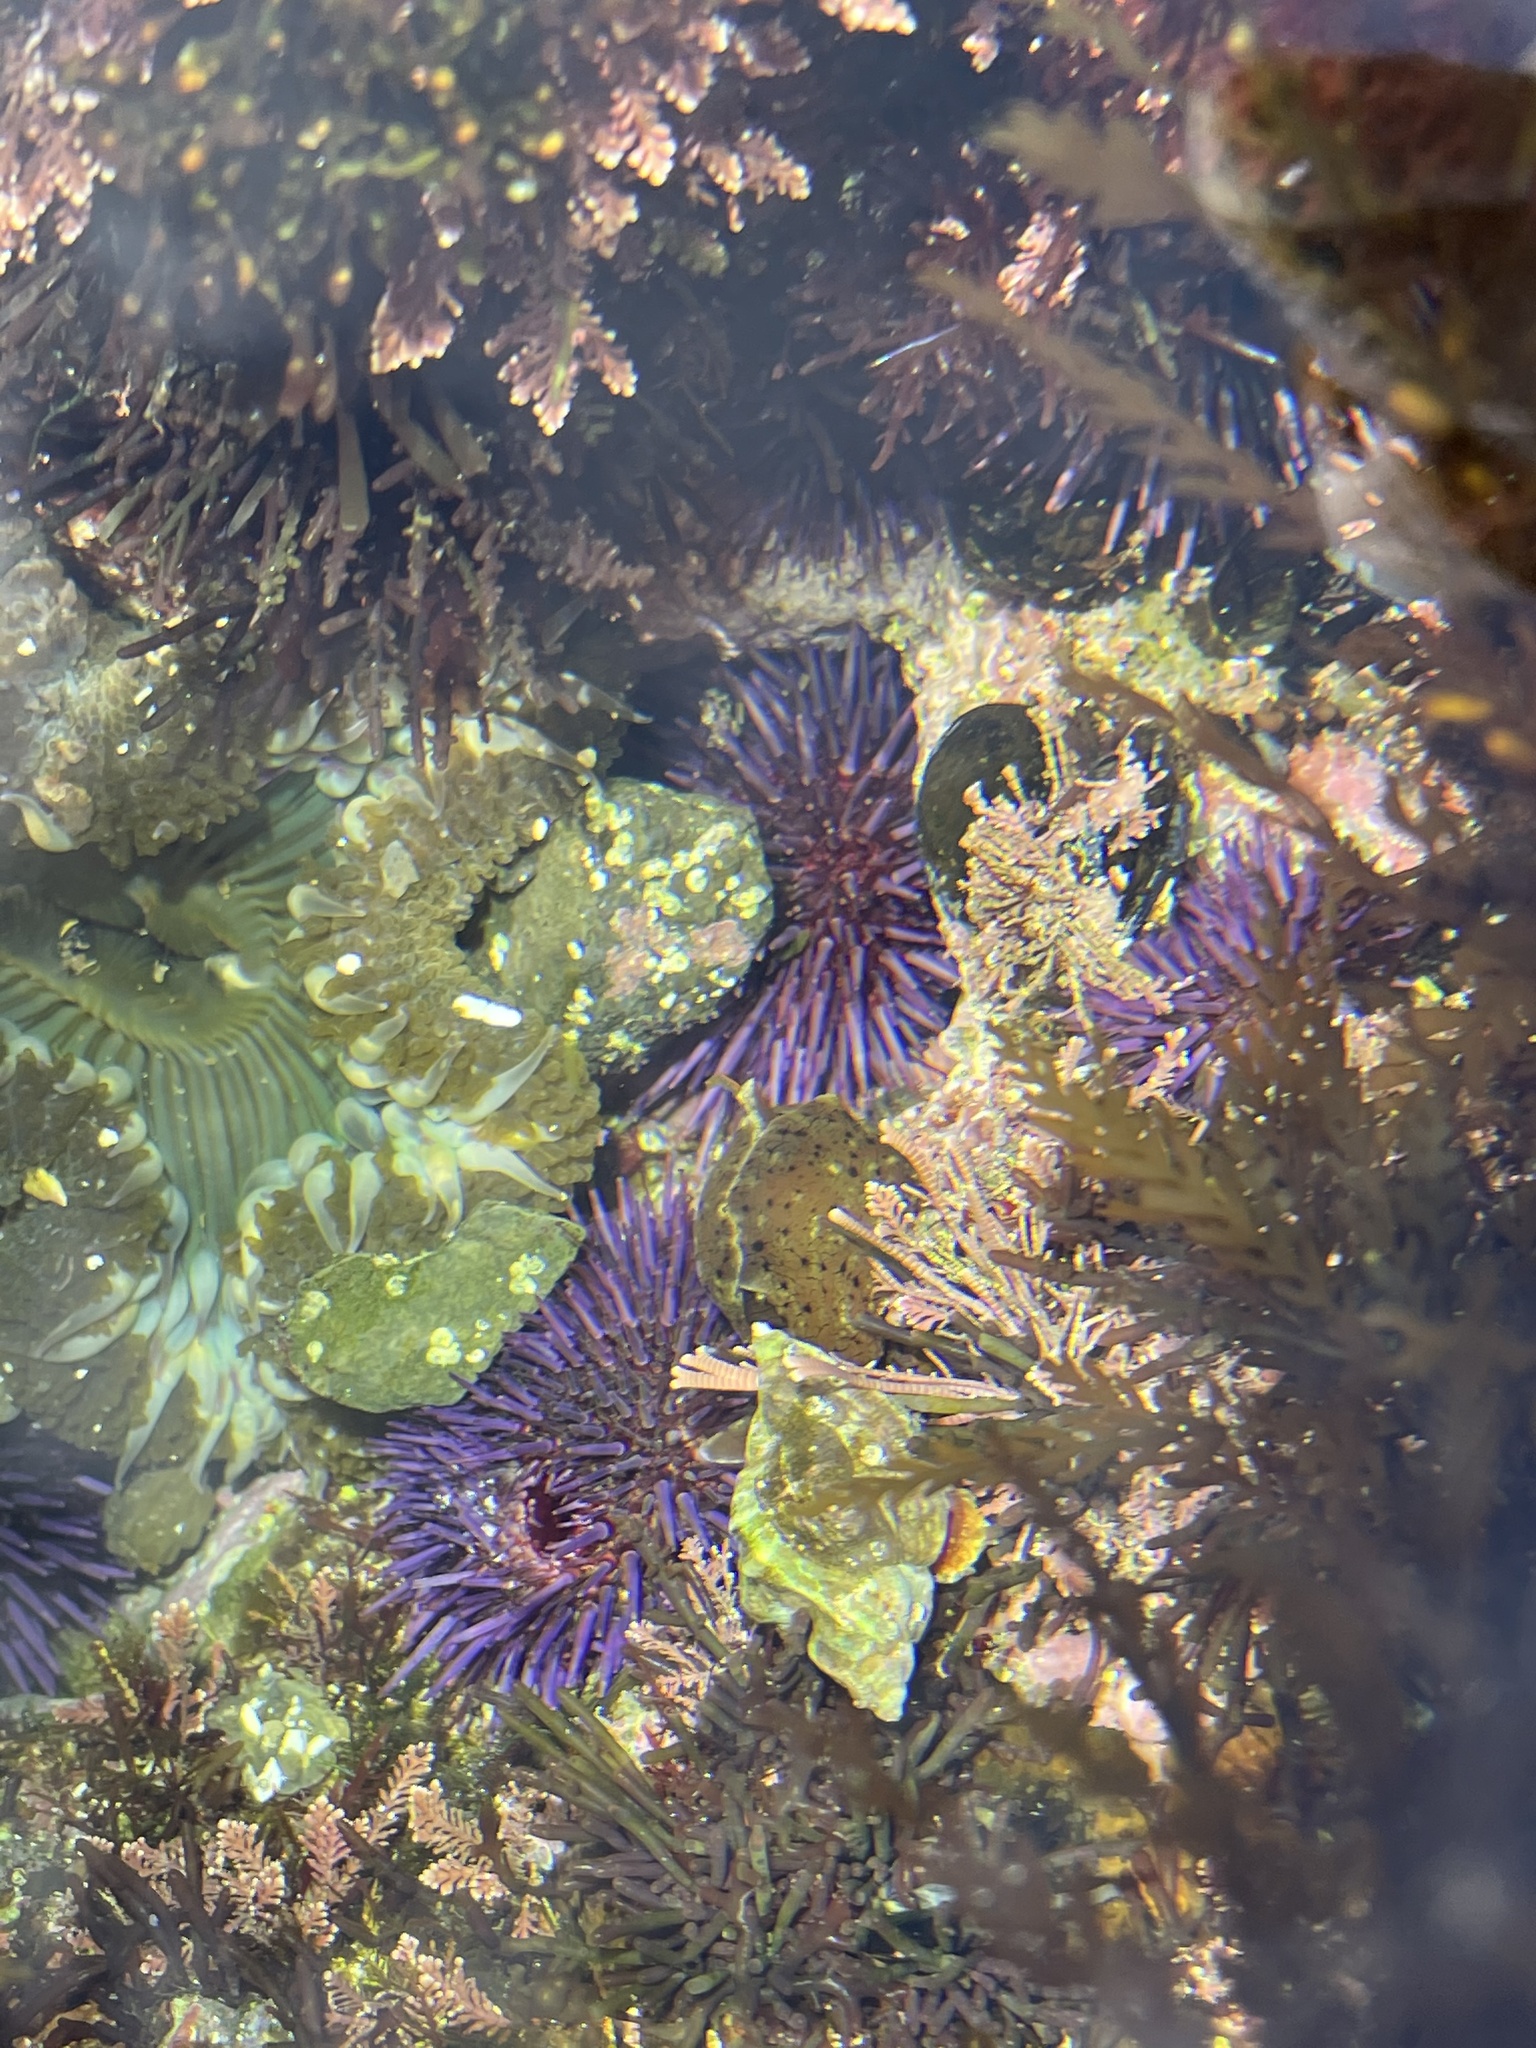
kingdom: Animalia
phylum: Cnidaria
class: Anthozoa
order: Actiniaria
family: Actiniidae
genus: Anthopleura
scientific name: Anthopleura sola
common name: Sun anemone
